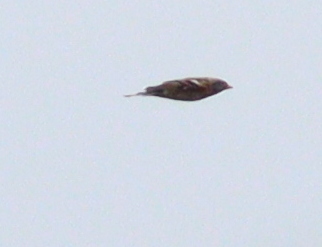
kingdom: Animalia
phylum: Chordata
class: Aves
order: Passeriformes
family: Fringillidae
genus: Fringilla
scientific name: Fringilla montifringilla
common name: Brambling
